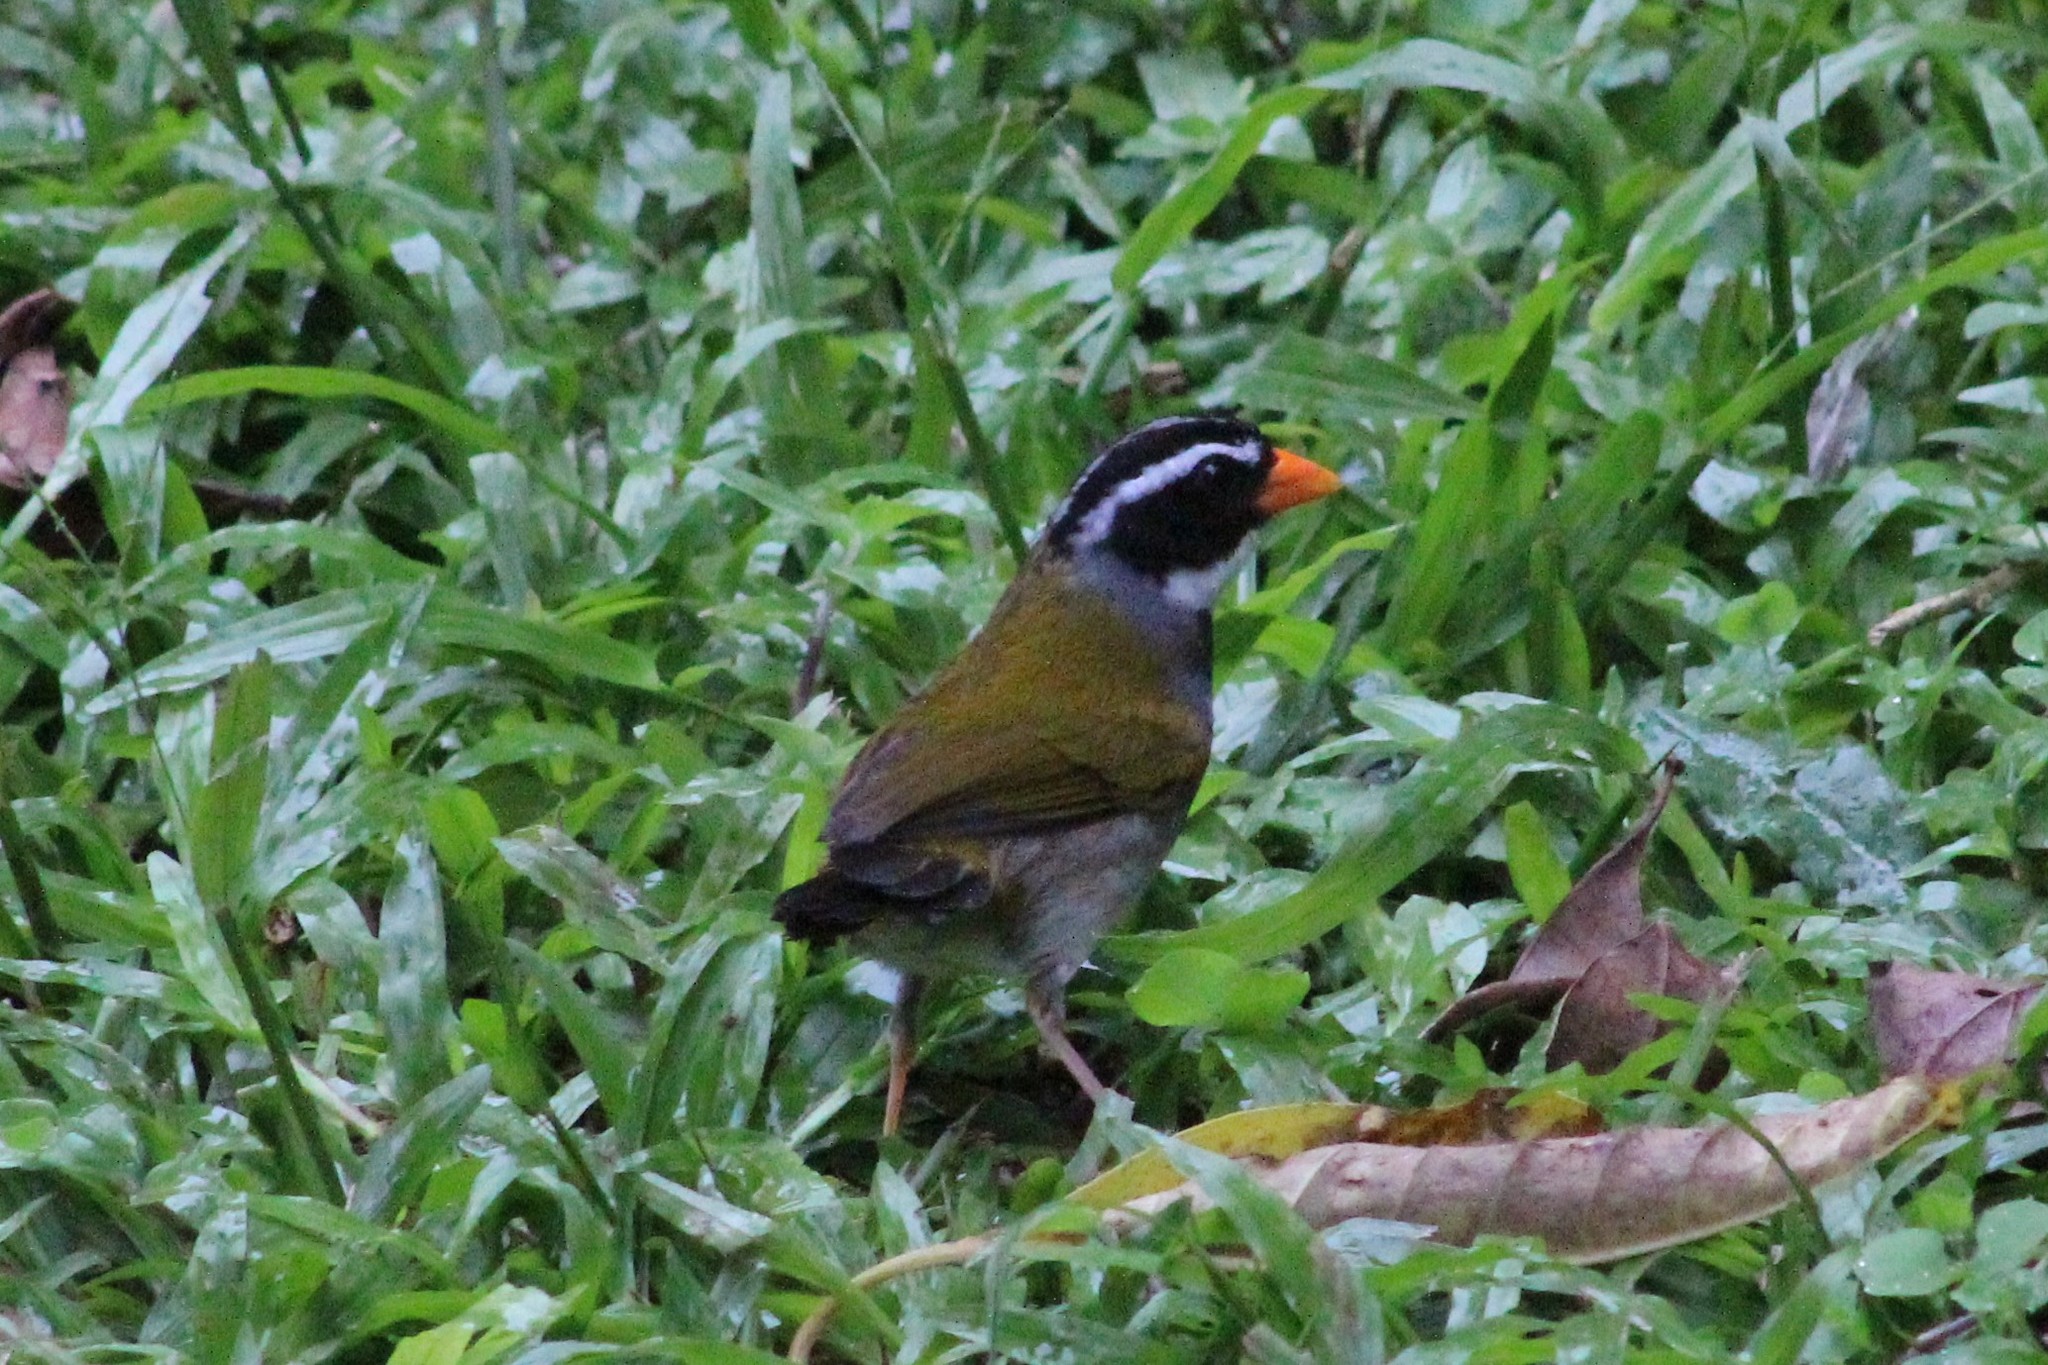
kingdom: Animalia
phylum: Chordata
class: Aves
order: Passeriformes
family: Passerellidae
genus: Arremon
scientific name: Arremon aurantiirostris
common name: Orange-billed sparrow
